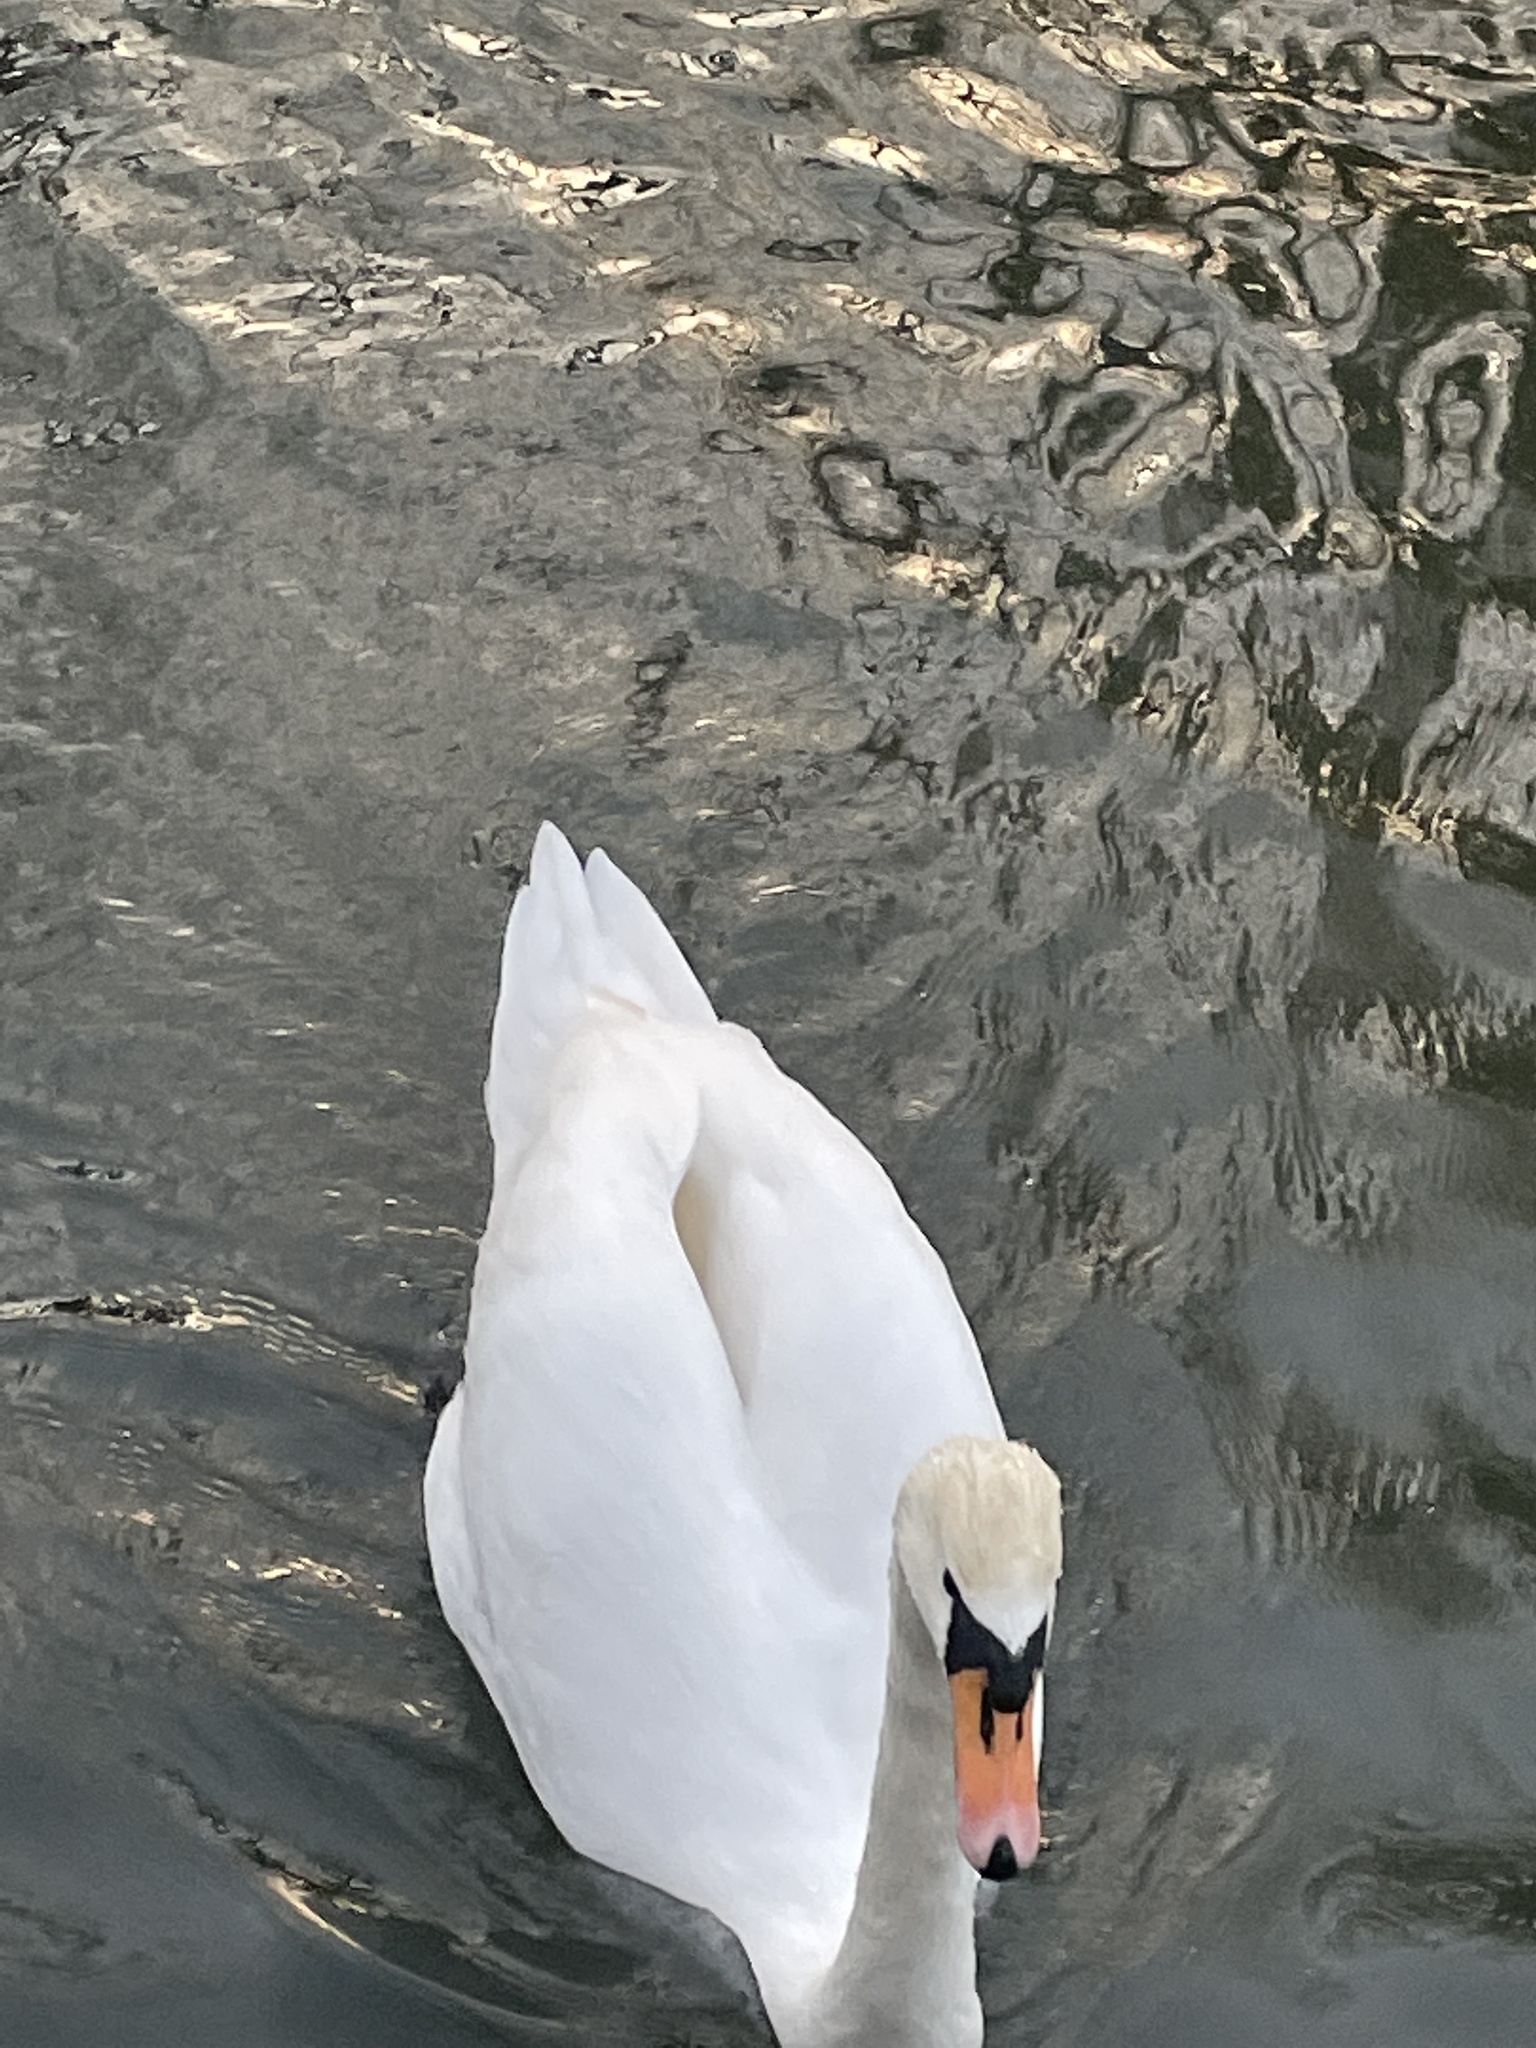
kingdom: Animalia
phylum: Chordata
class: Aves
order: Anseriformes
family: Anatidae
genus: Cygnus
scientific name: Cygnus olor
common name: Mute swan
